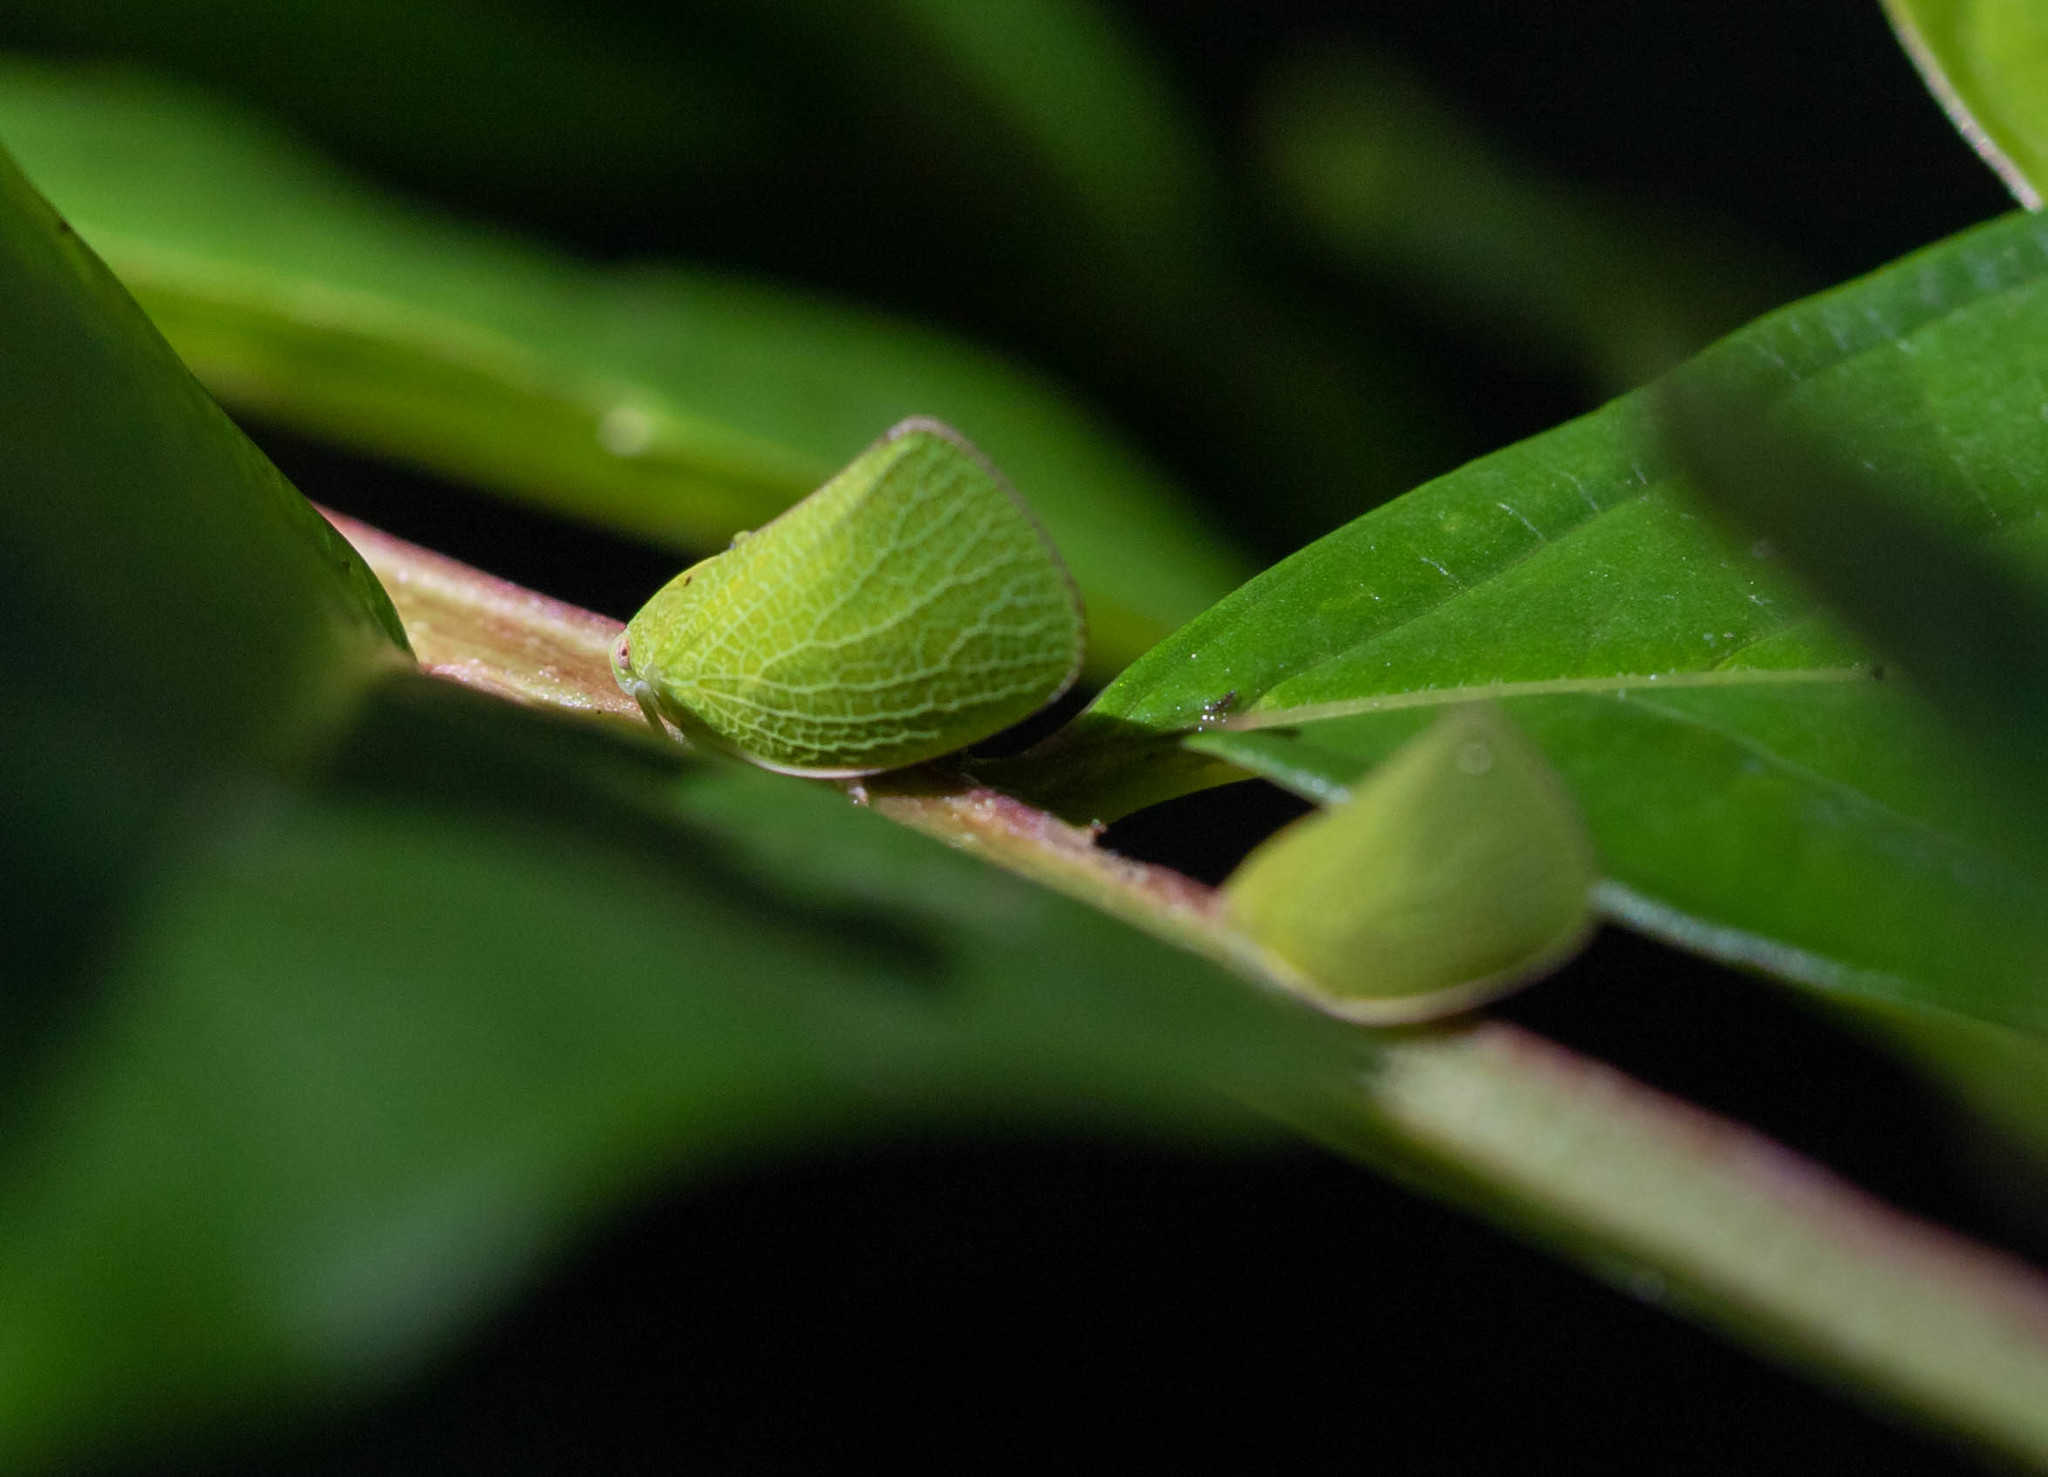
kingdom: Animalia
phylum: Arthropoda
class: Insecta
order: Hemiptera
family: Acanaloniidae
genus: Acanalonia
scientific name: Acanalonia bivittata
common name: Two-striped planthopper
